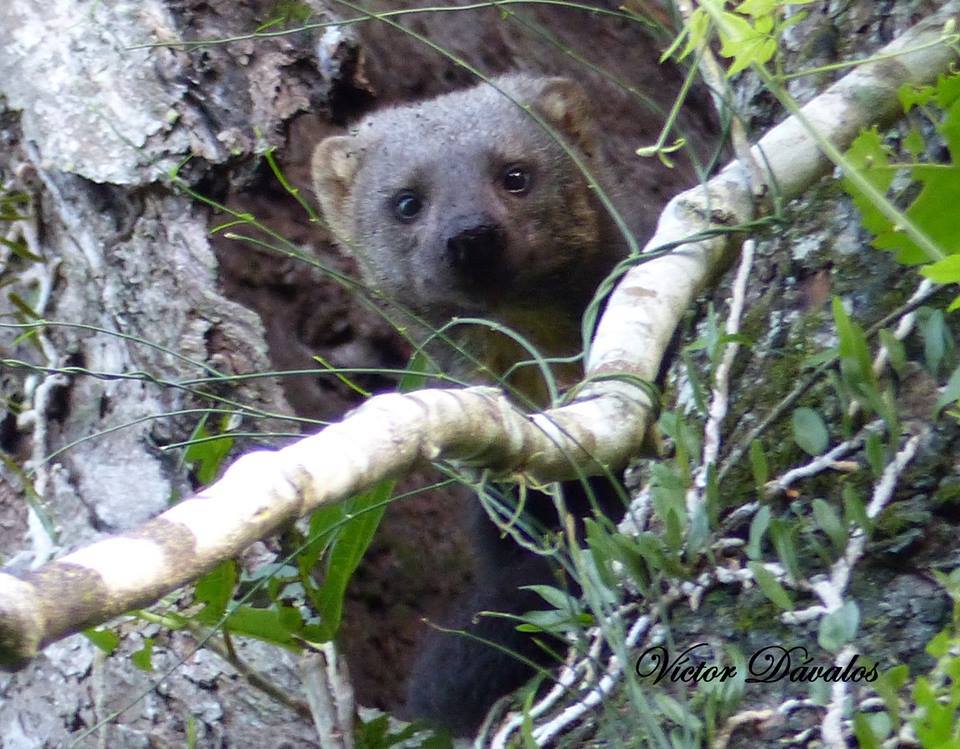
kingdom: Animalia
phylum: Chordata
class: Mammalia
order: Carnivora
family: Mustelidae
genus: Eira
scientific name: Eira barbara
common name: Tayra
